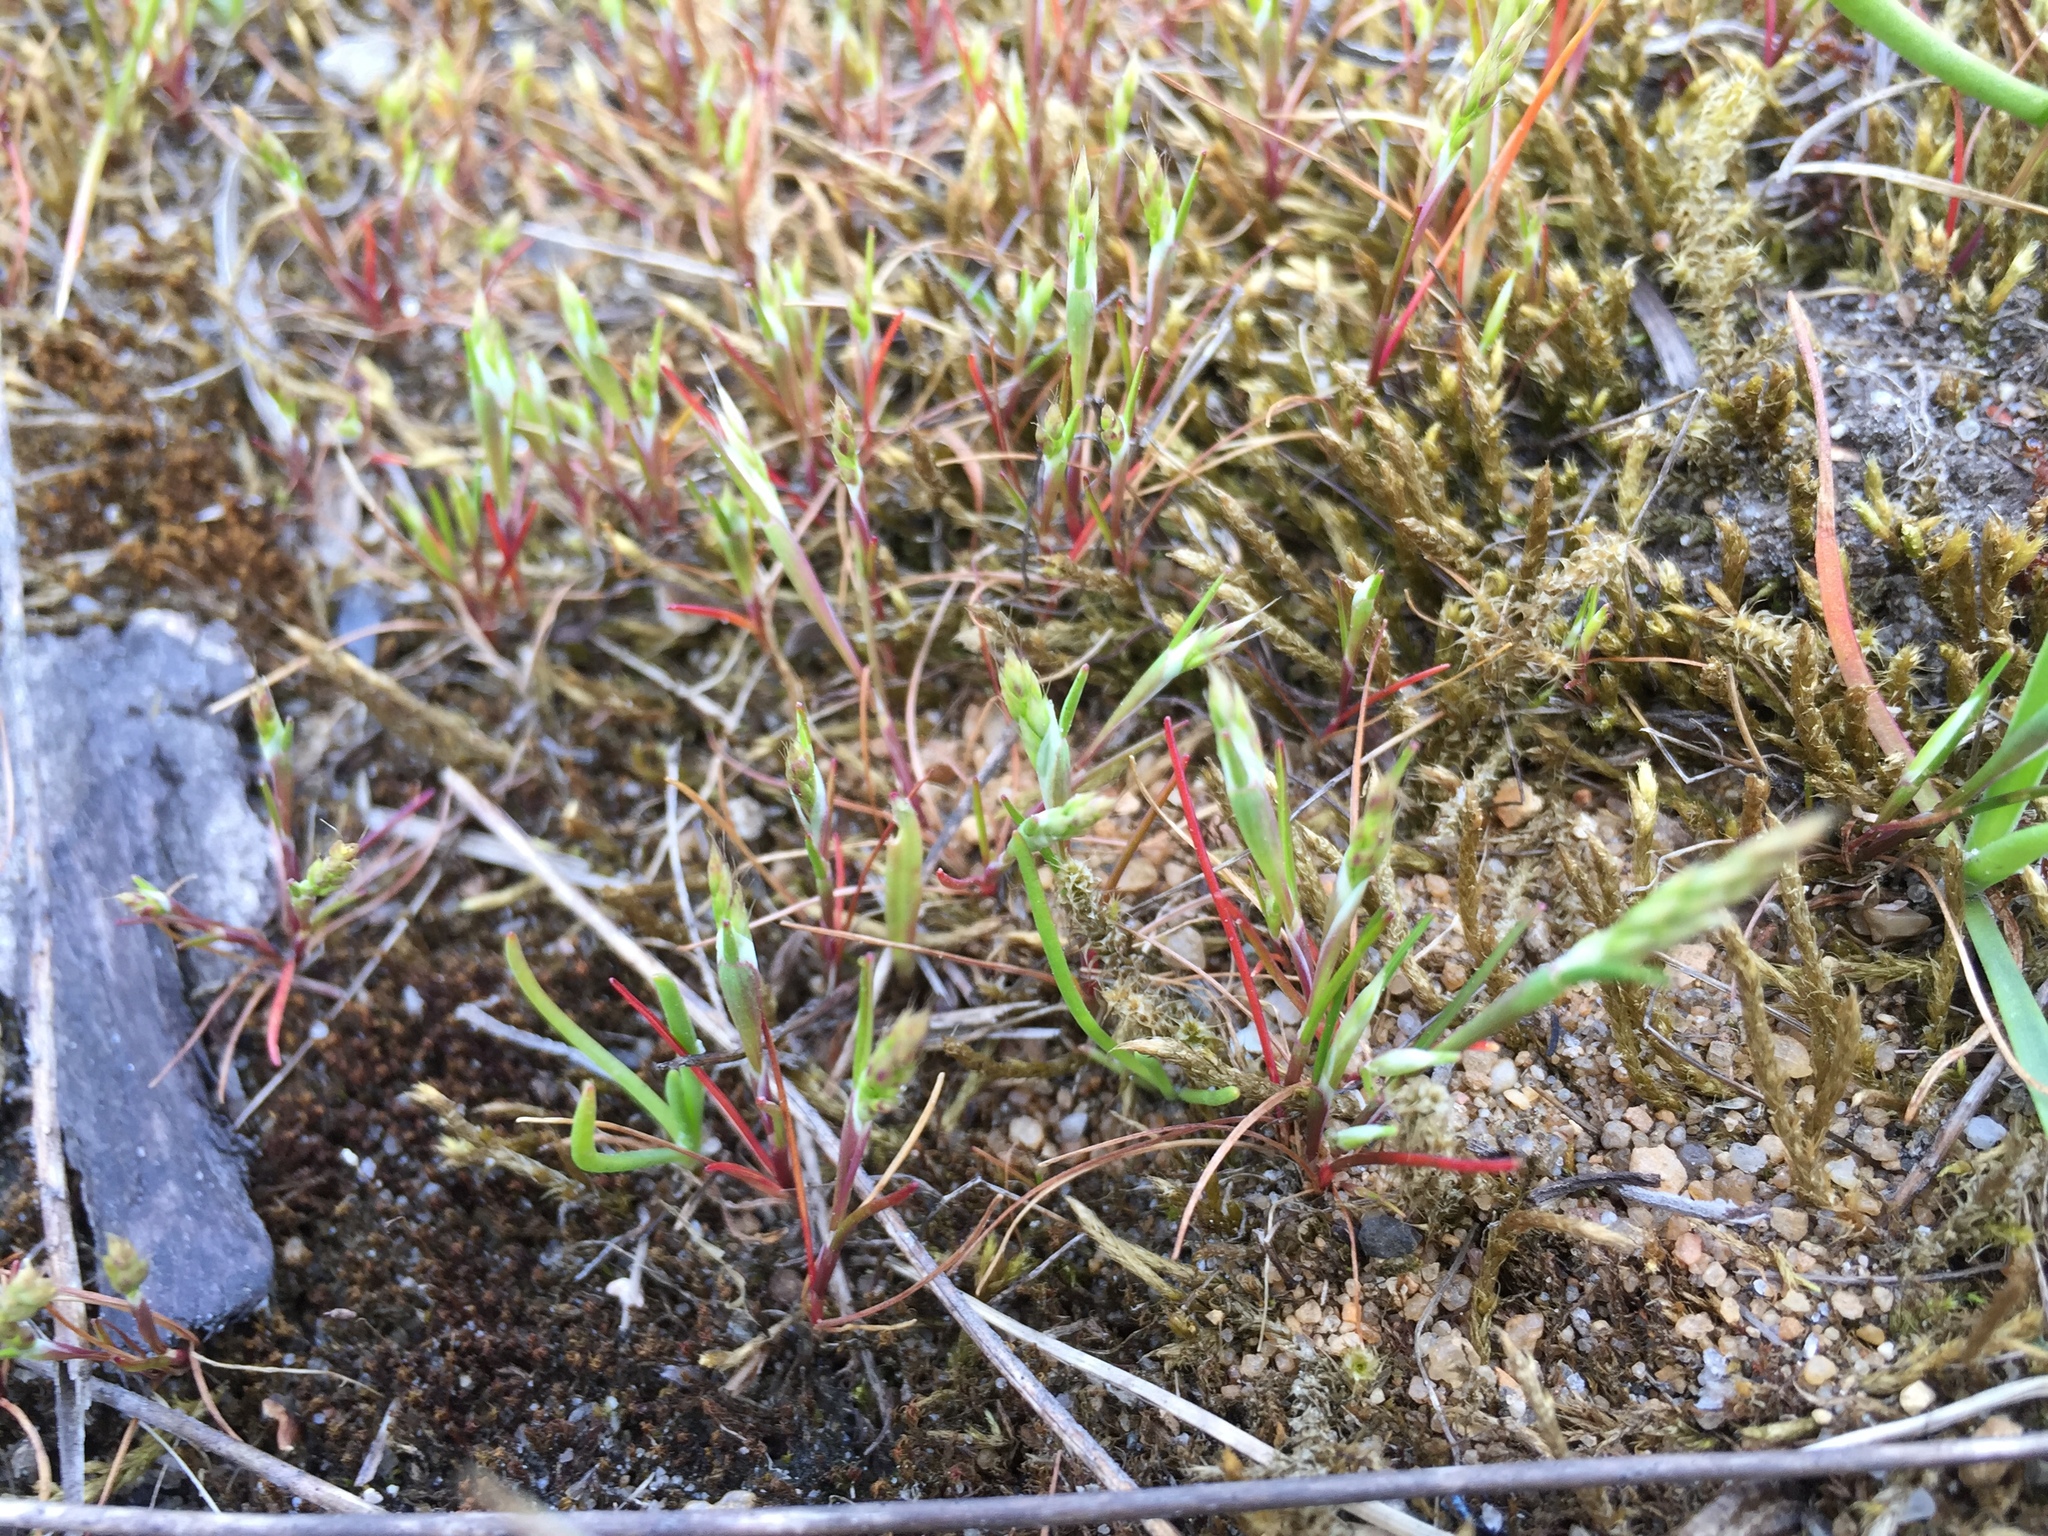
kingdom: Plantae
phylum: Tracheophyta
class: Liliopsida
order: Poales
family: Poaceae
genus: Aira
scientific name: Aira praecox
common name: Early hair-grass
